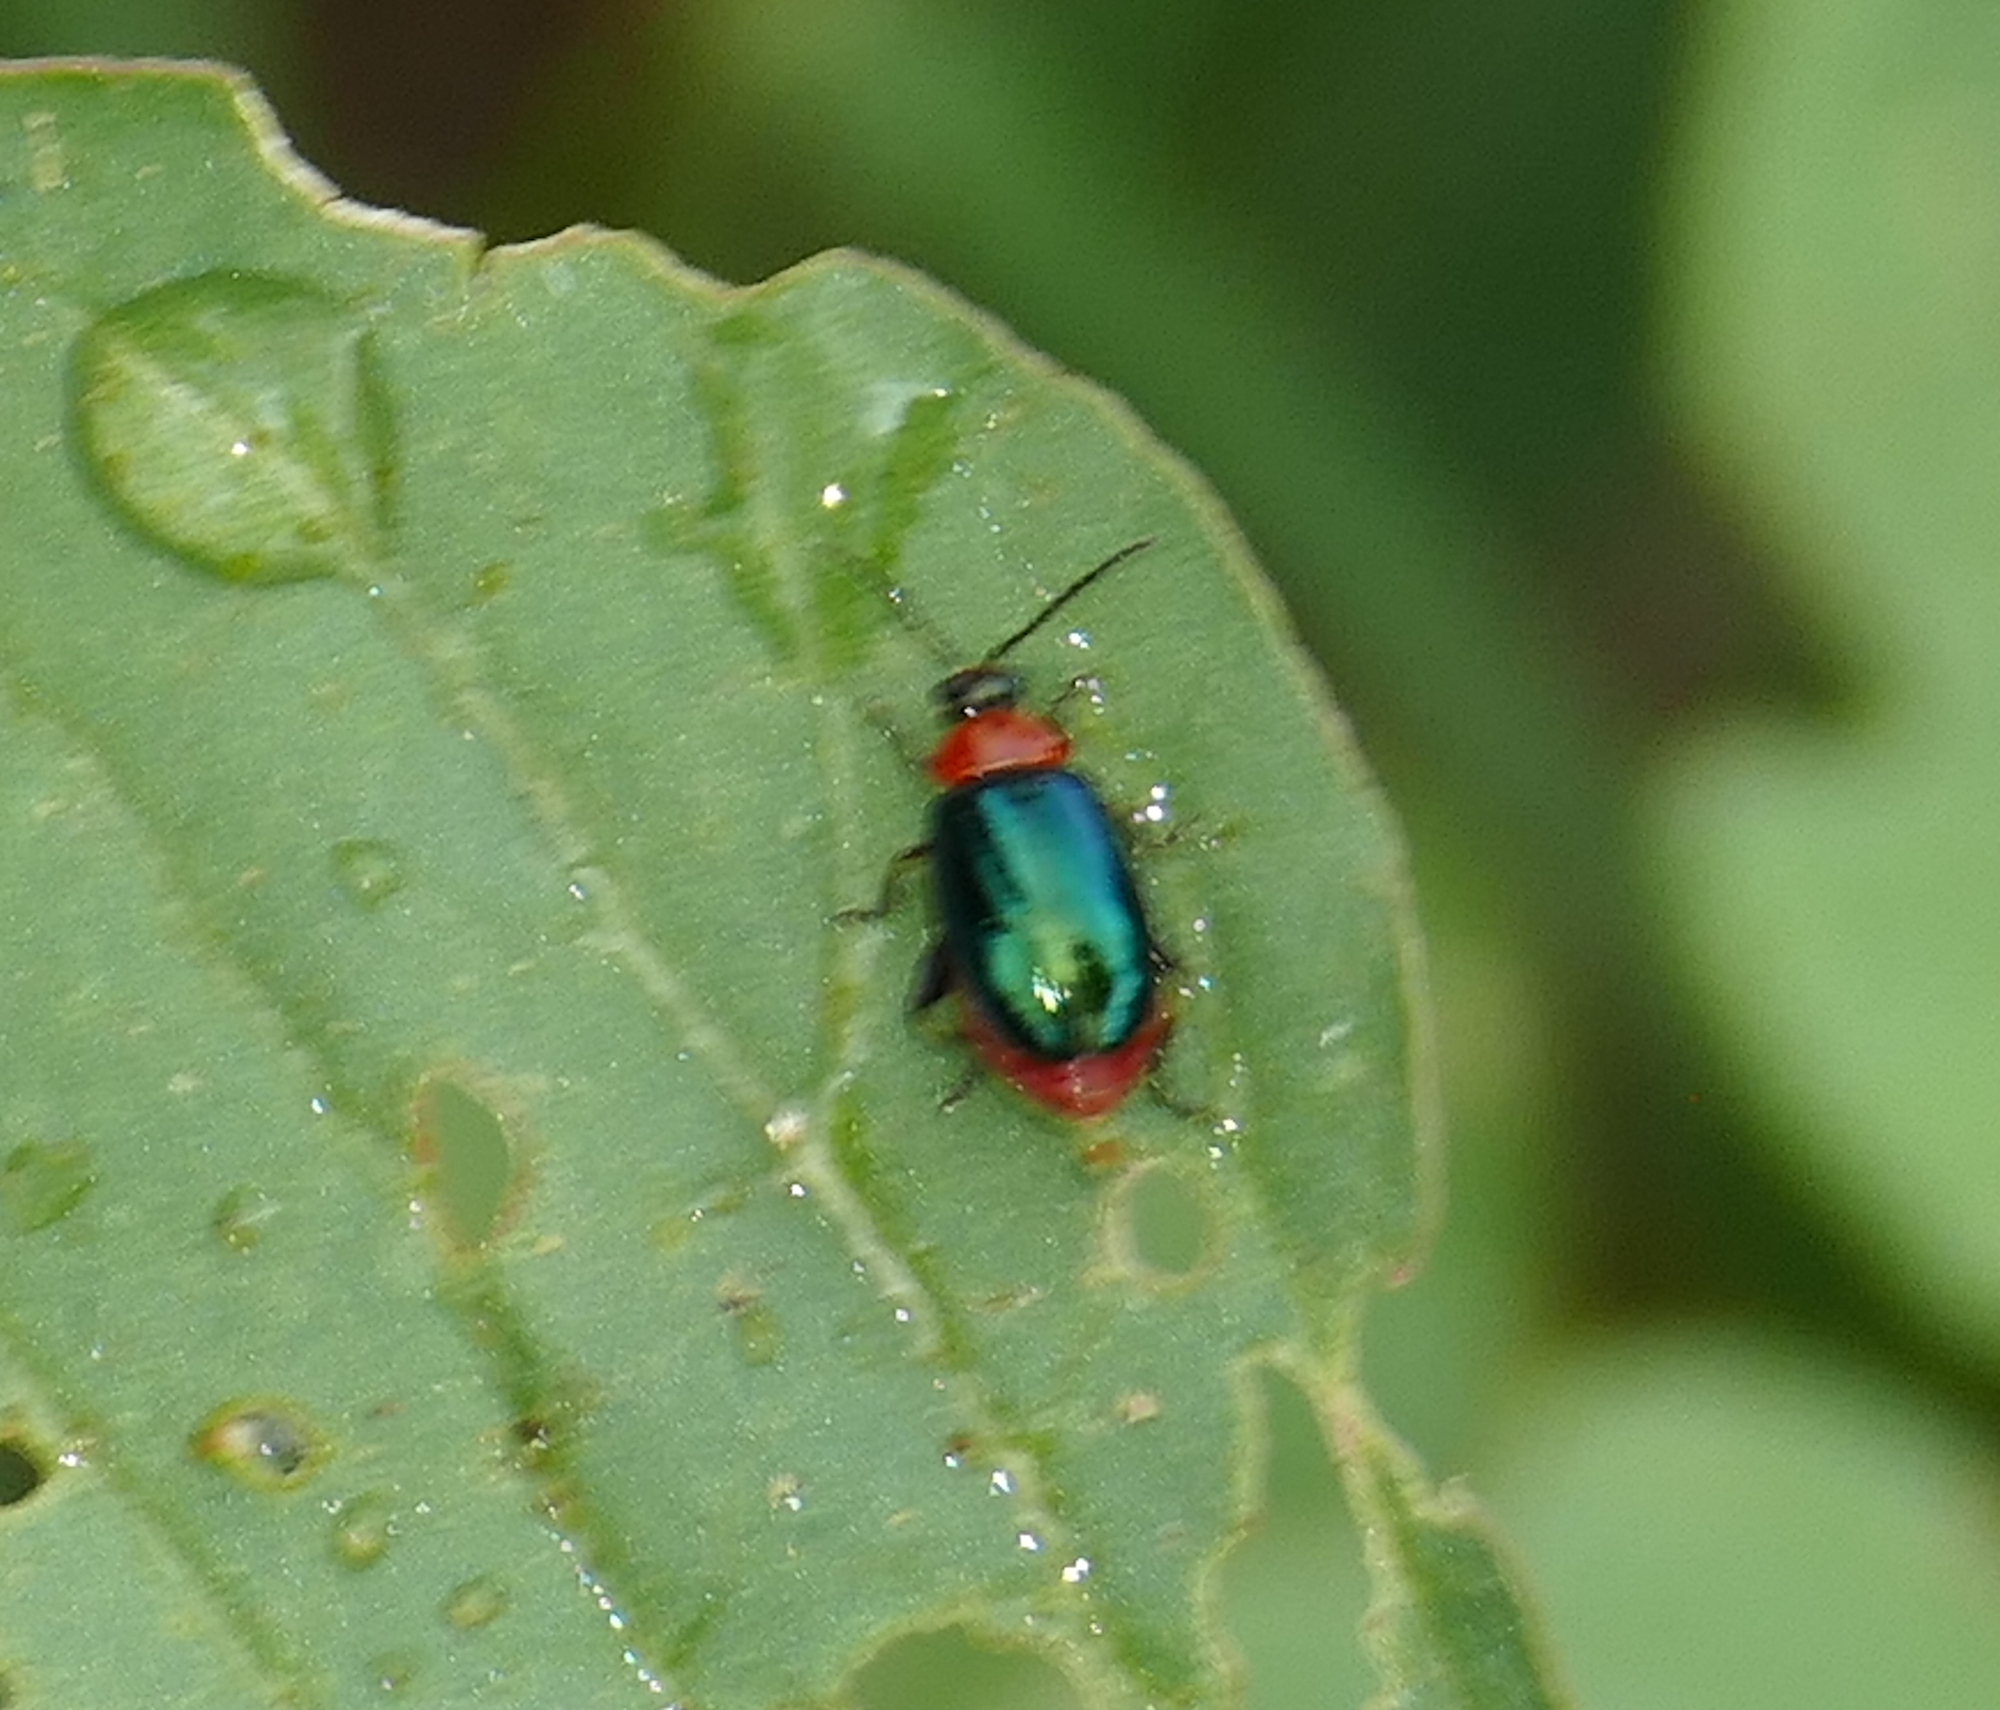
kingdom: Animalia
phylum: Arthropoda
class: Insecta
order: Coleoptera
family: Chrysomelidae
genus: Disonycha
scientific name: Disonycha politula
